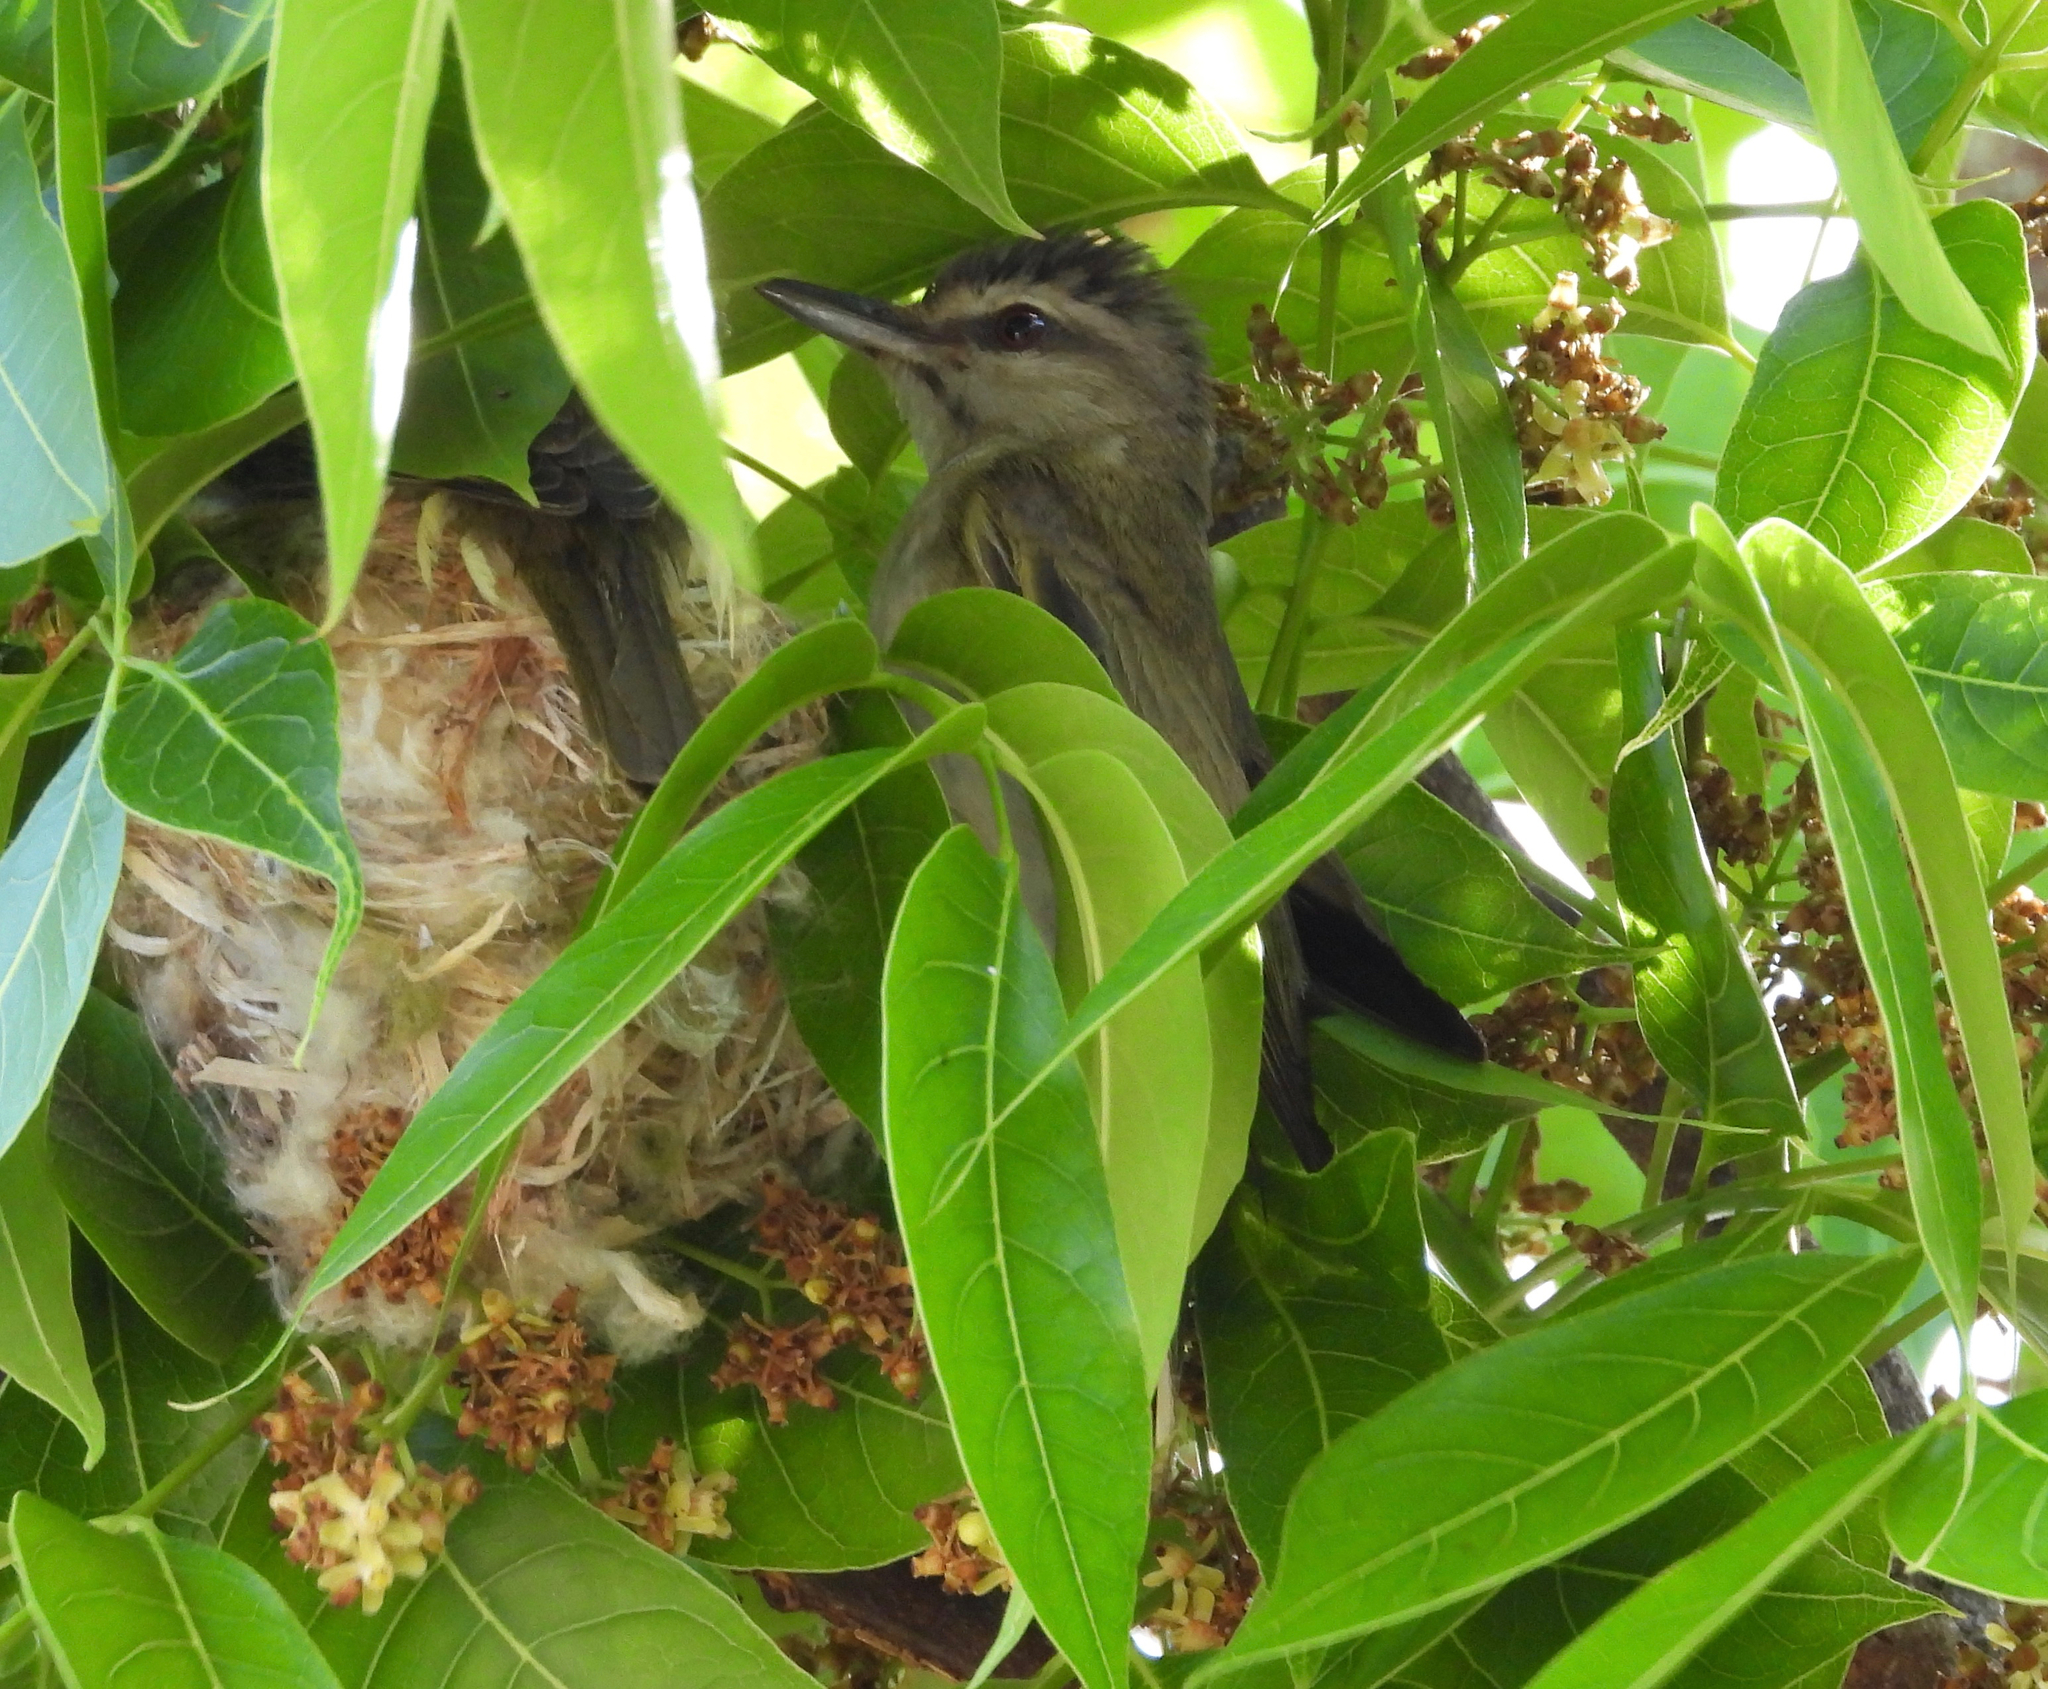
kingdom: Animalia
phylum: Chordata
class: Aves
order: Passeriformes
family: Vireonidae
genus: Vireo
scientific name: Vireo altiloquus
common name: Black-whiskered vireo
